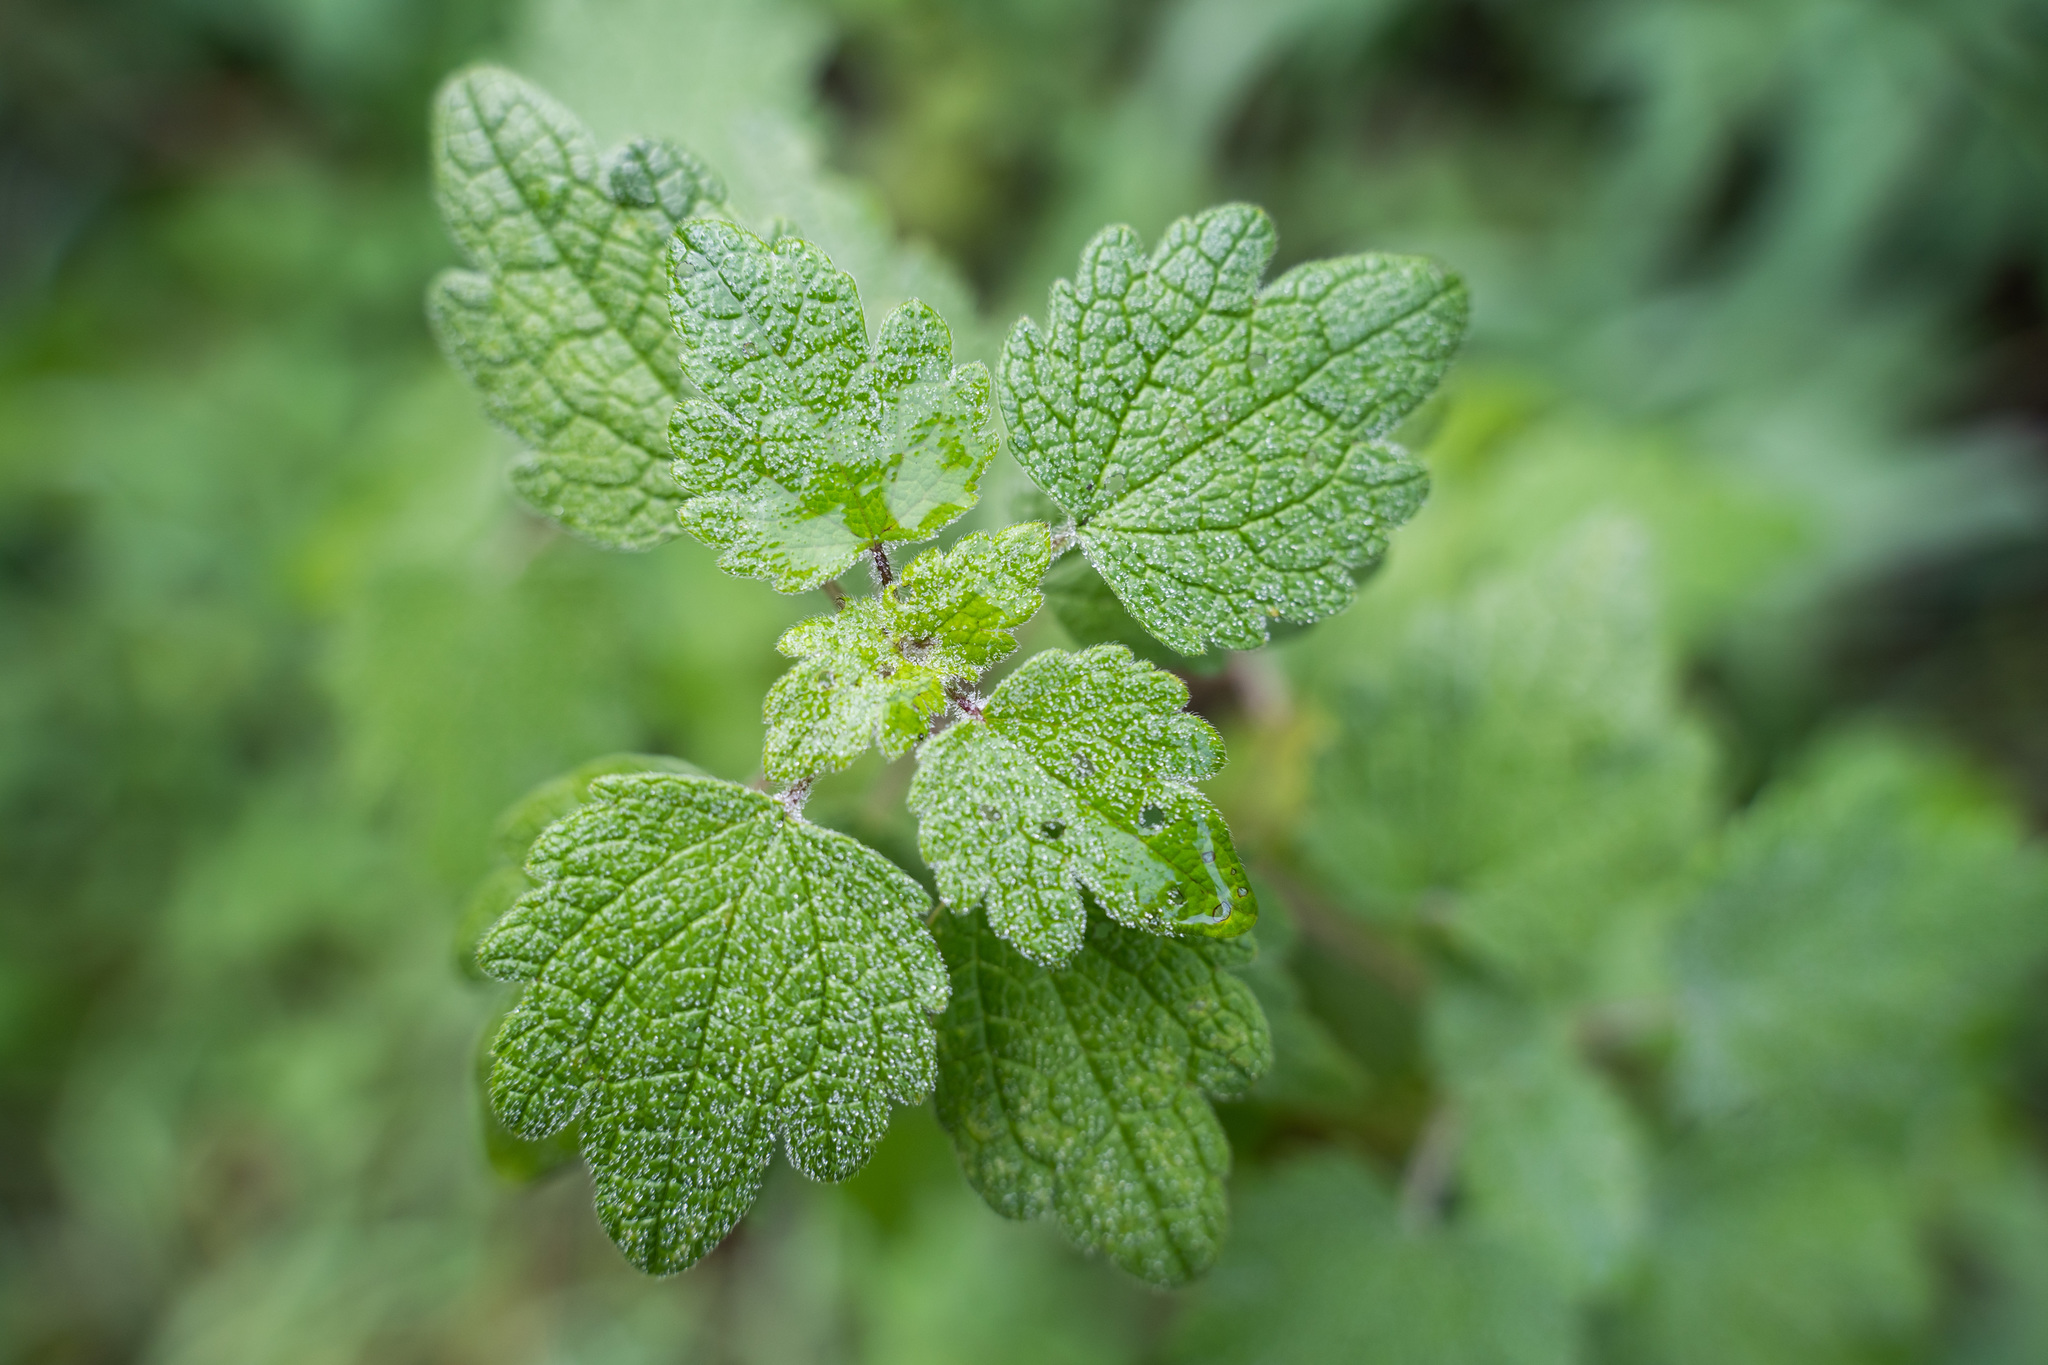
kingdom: Plantae
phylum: Tracheophyta
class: Magnoliopsida
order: Lamiales
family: Lamiaceae
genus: Leonurus
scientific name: Leonurus quinquelobatus
